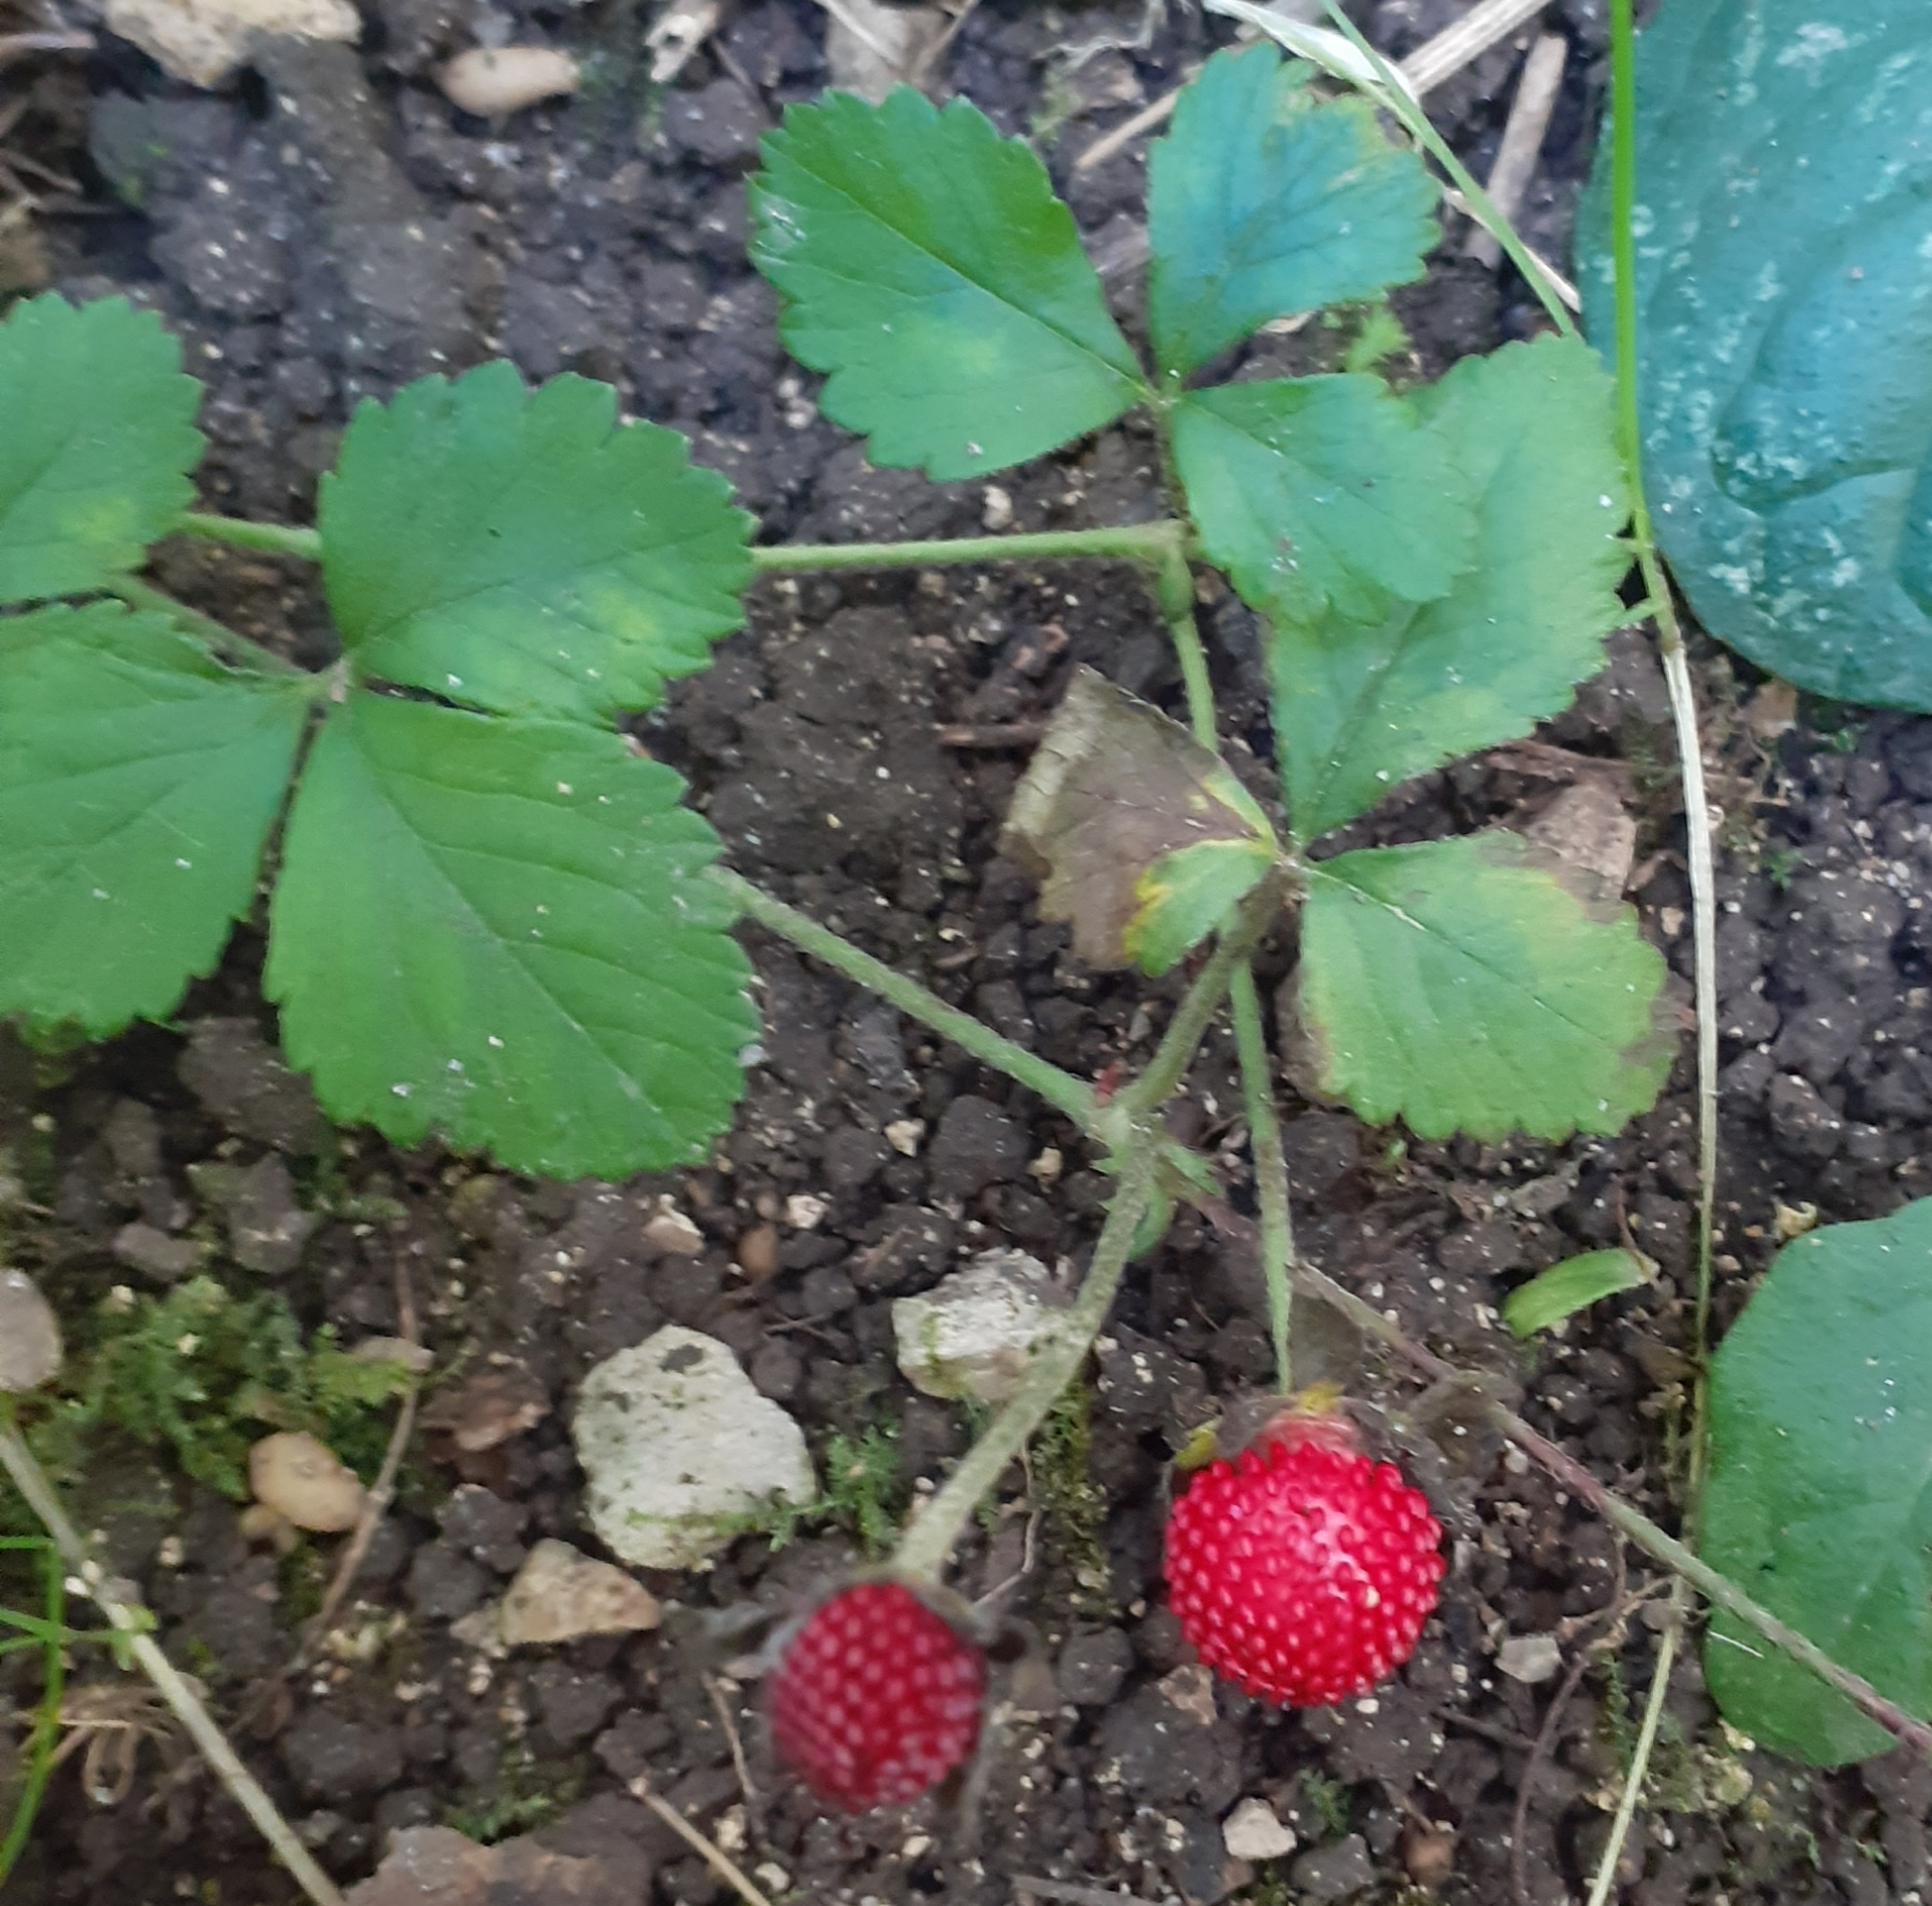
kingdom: Plantae
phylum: Tracheophyta
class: Magnoliopsida
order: Rosales
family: Rosaceae
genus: Potentilla
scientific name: Potentilla indica
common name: Yellow-flowered strawberry
